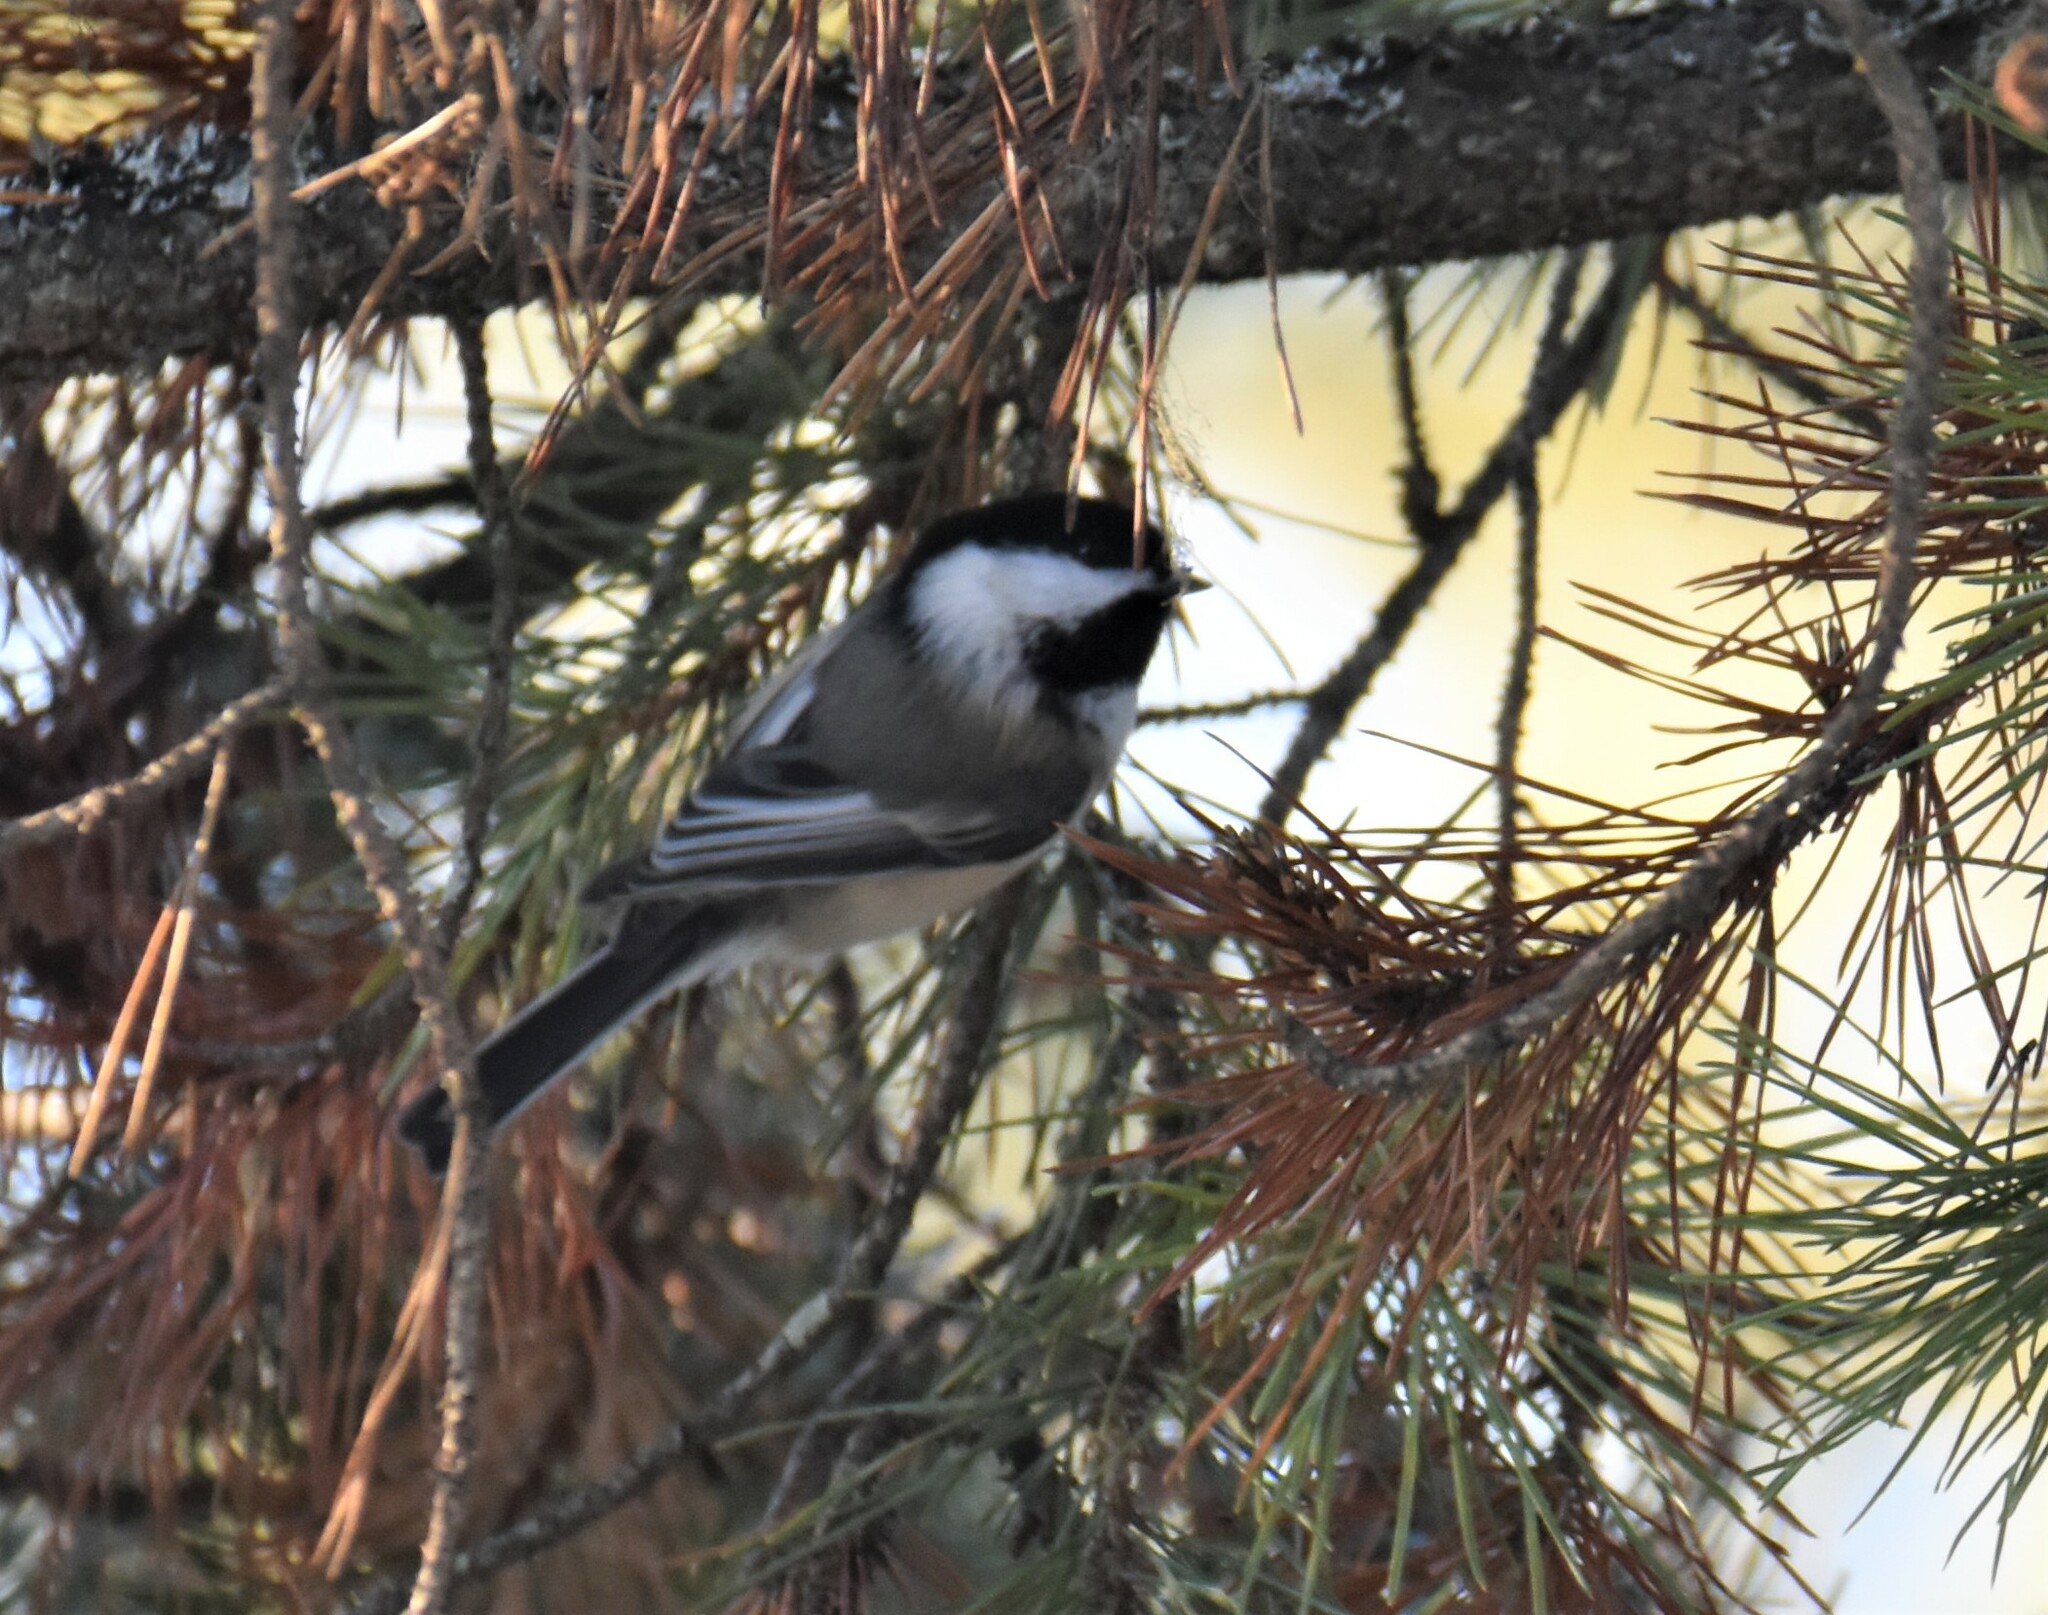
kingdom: Animalia
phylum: Chordata
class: Aves
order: Passeriformes
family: Paridae
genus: Poecile
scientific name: Poecile atricapillus
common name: Black-capped chickadee
